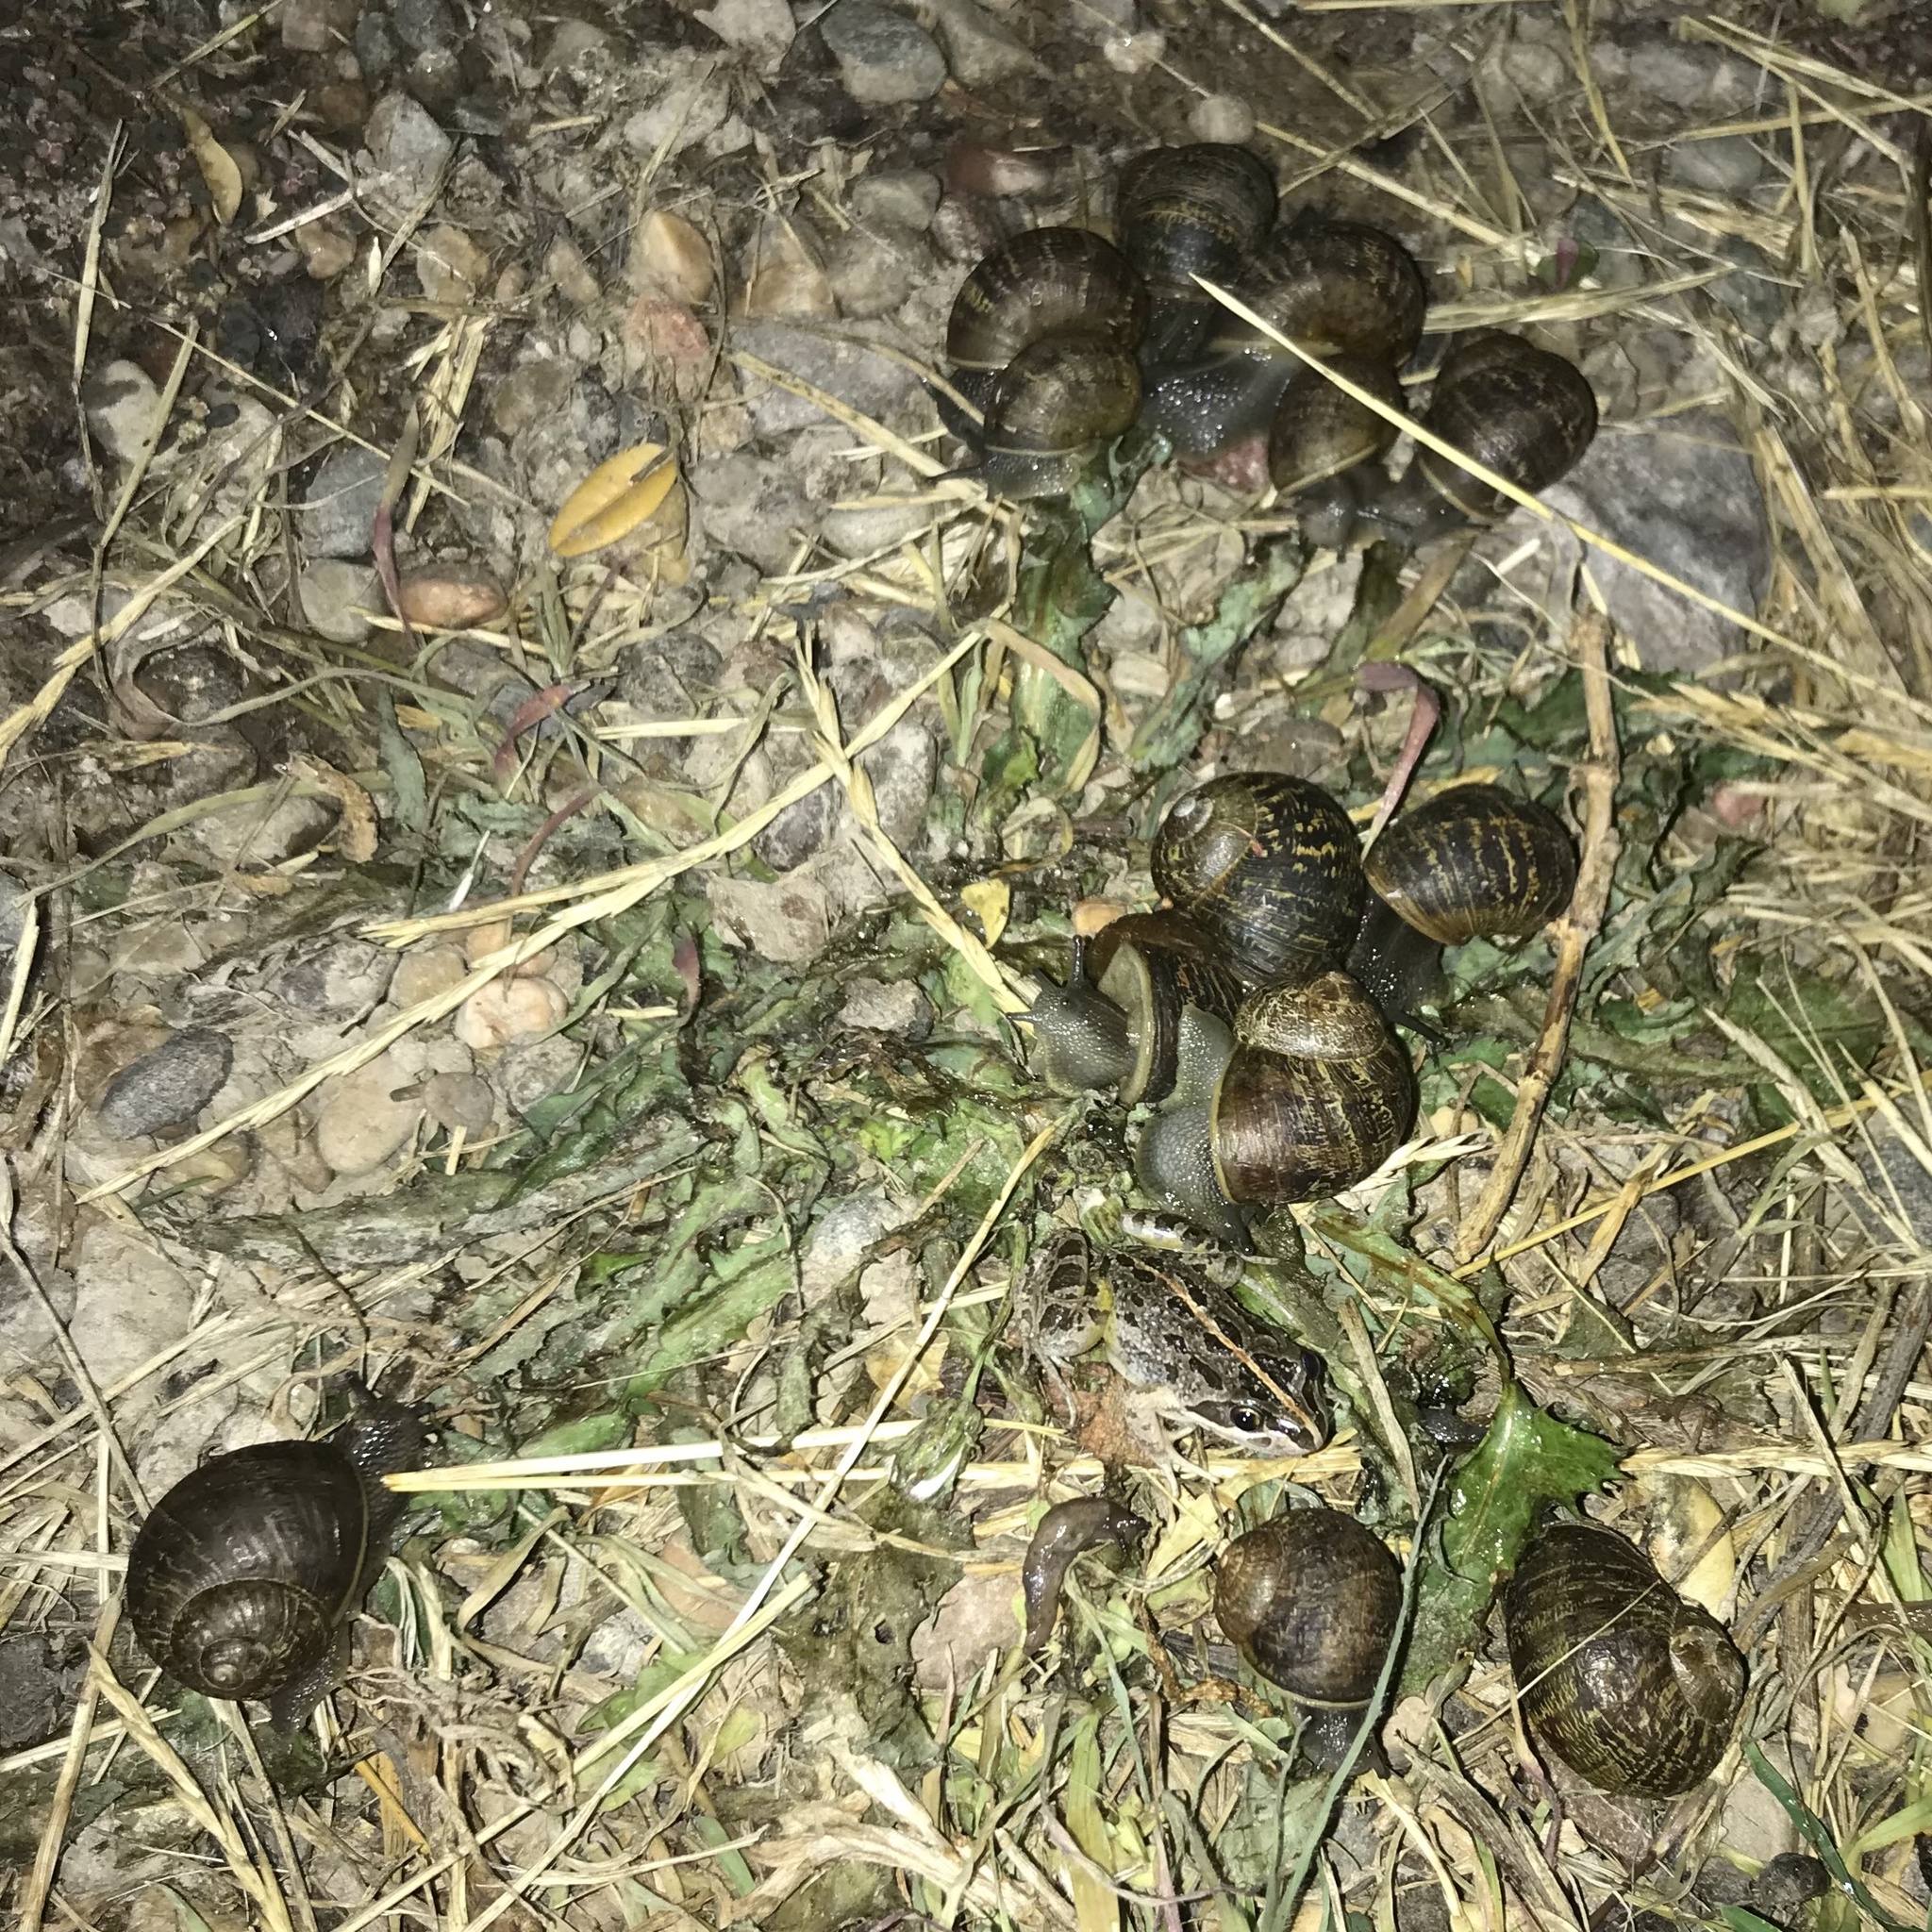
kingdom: Animalia
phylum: Mollusca
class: Gastropoda
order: Stylommatophora
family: Helicidae
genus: Cornu
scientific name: Cornu aspersum
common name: Brown garden snail
